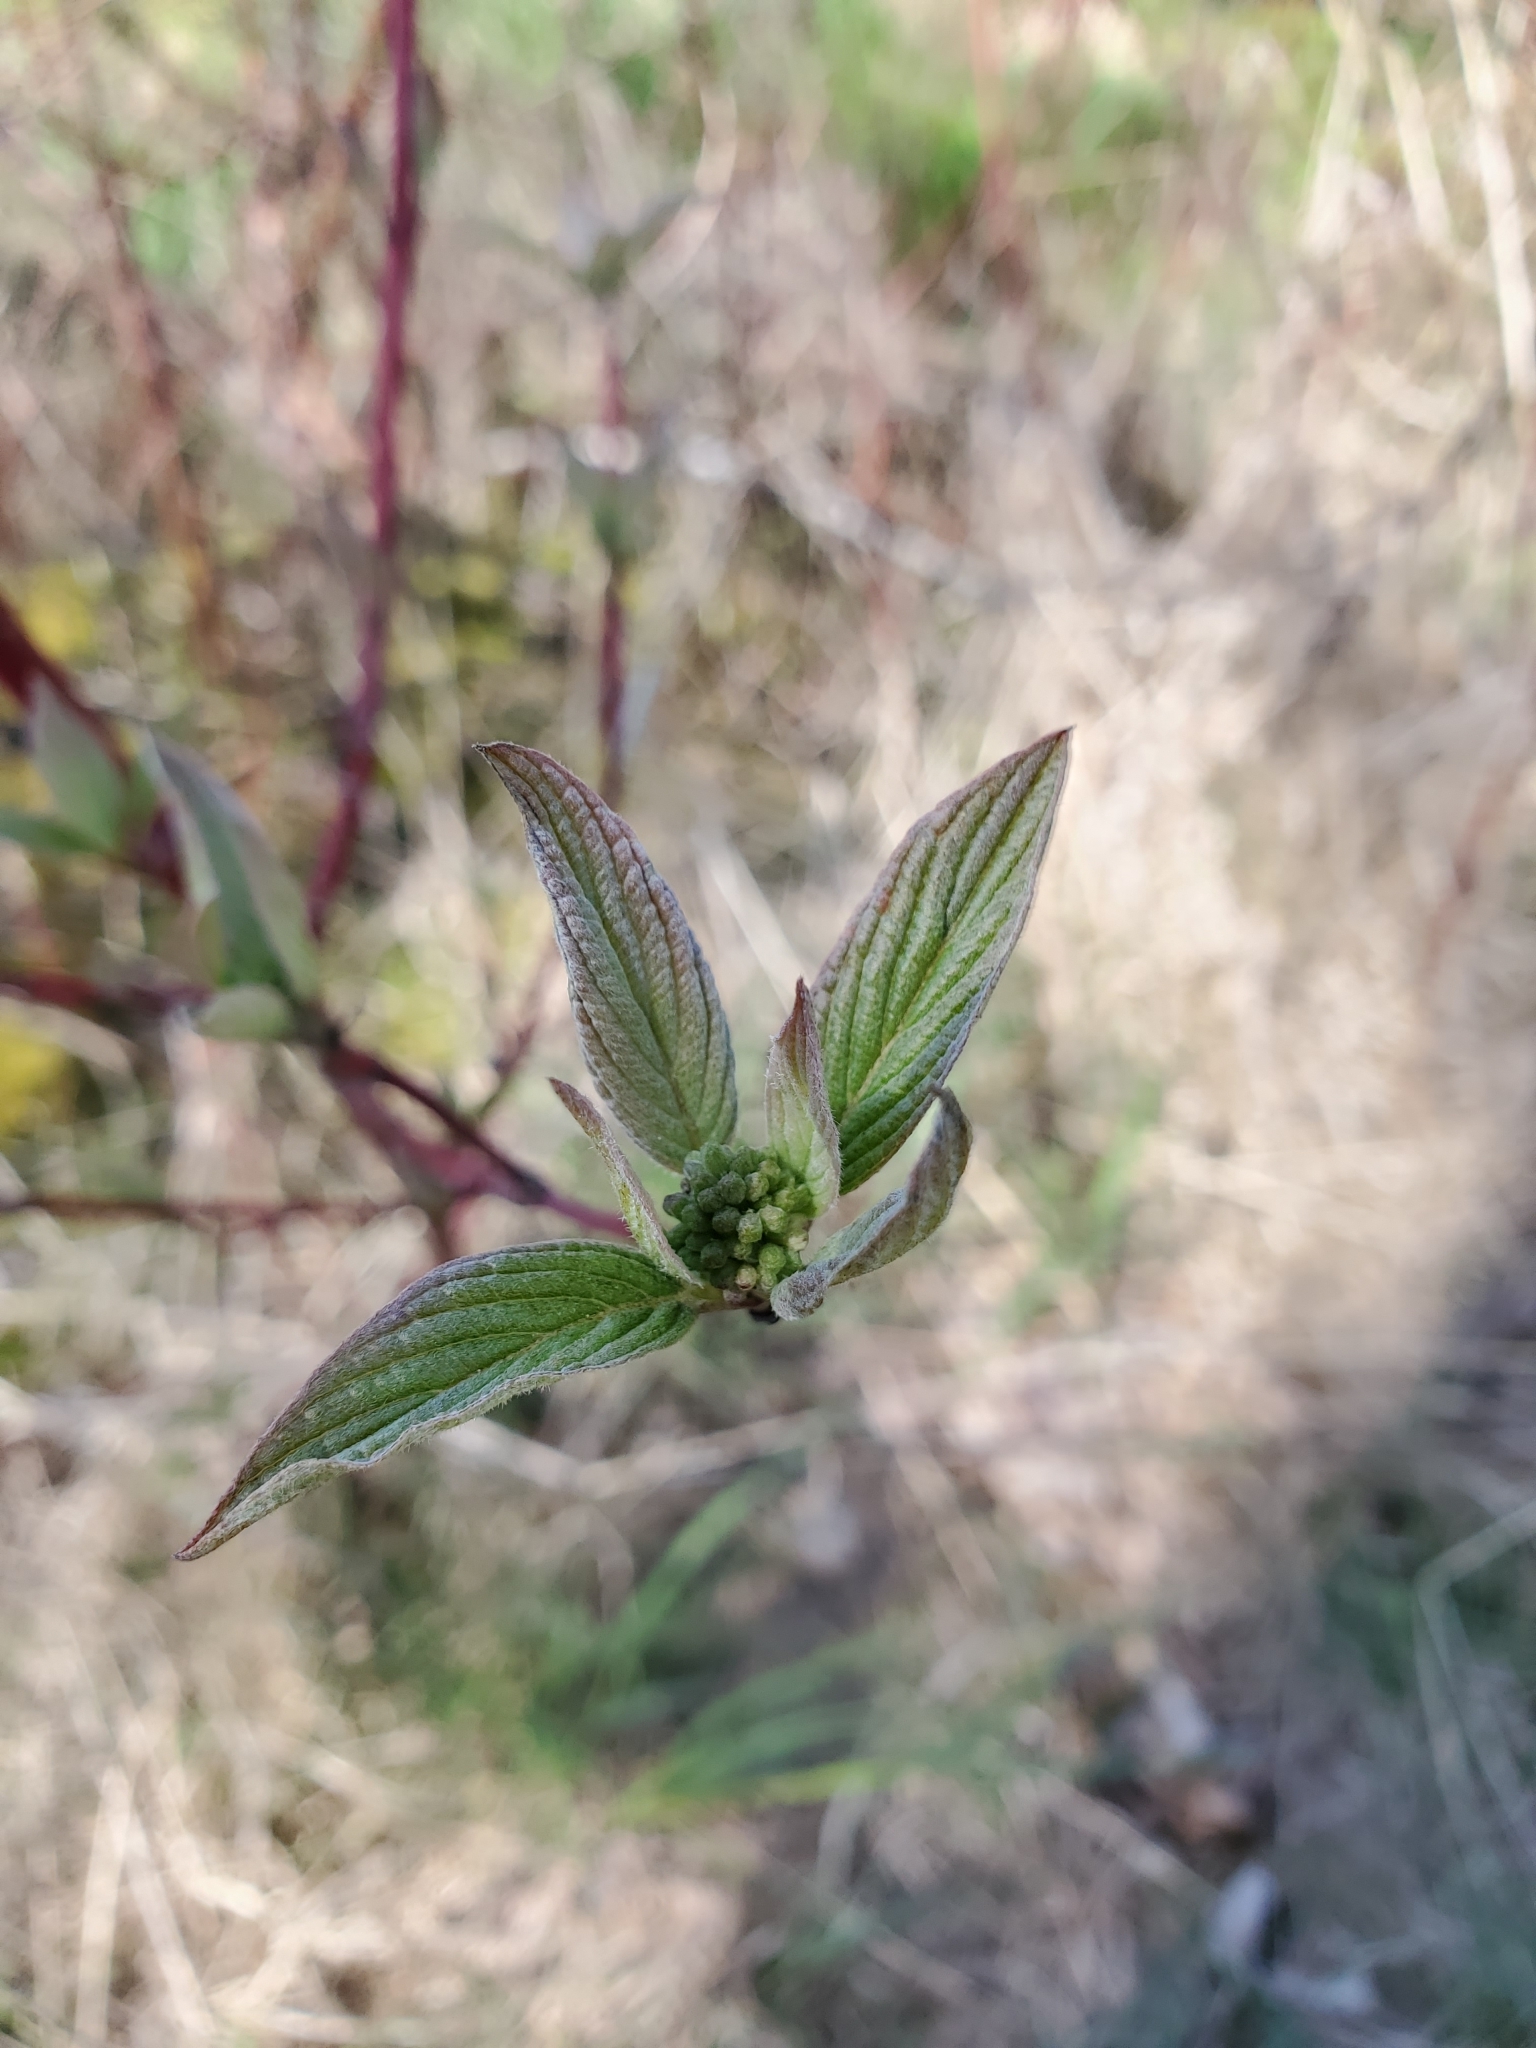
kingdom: Plantae
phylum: Tracheophyta
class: Magnoliopsida
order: Cornales
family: Cornaceae
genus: Cornus
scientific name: Cornus sericea
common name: Red-osier dogwood
